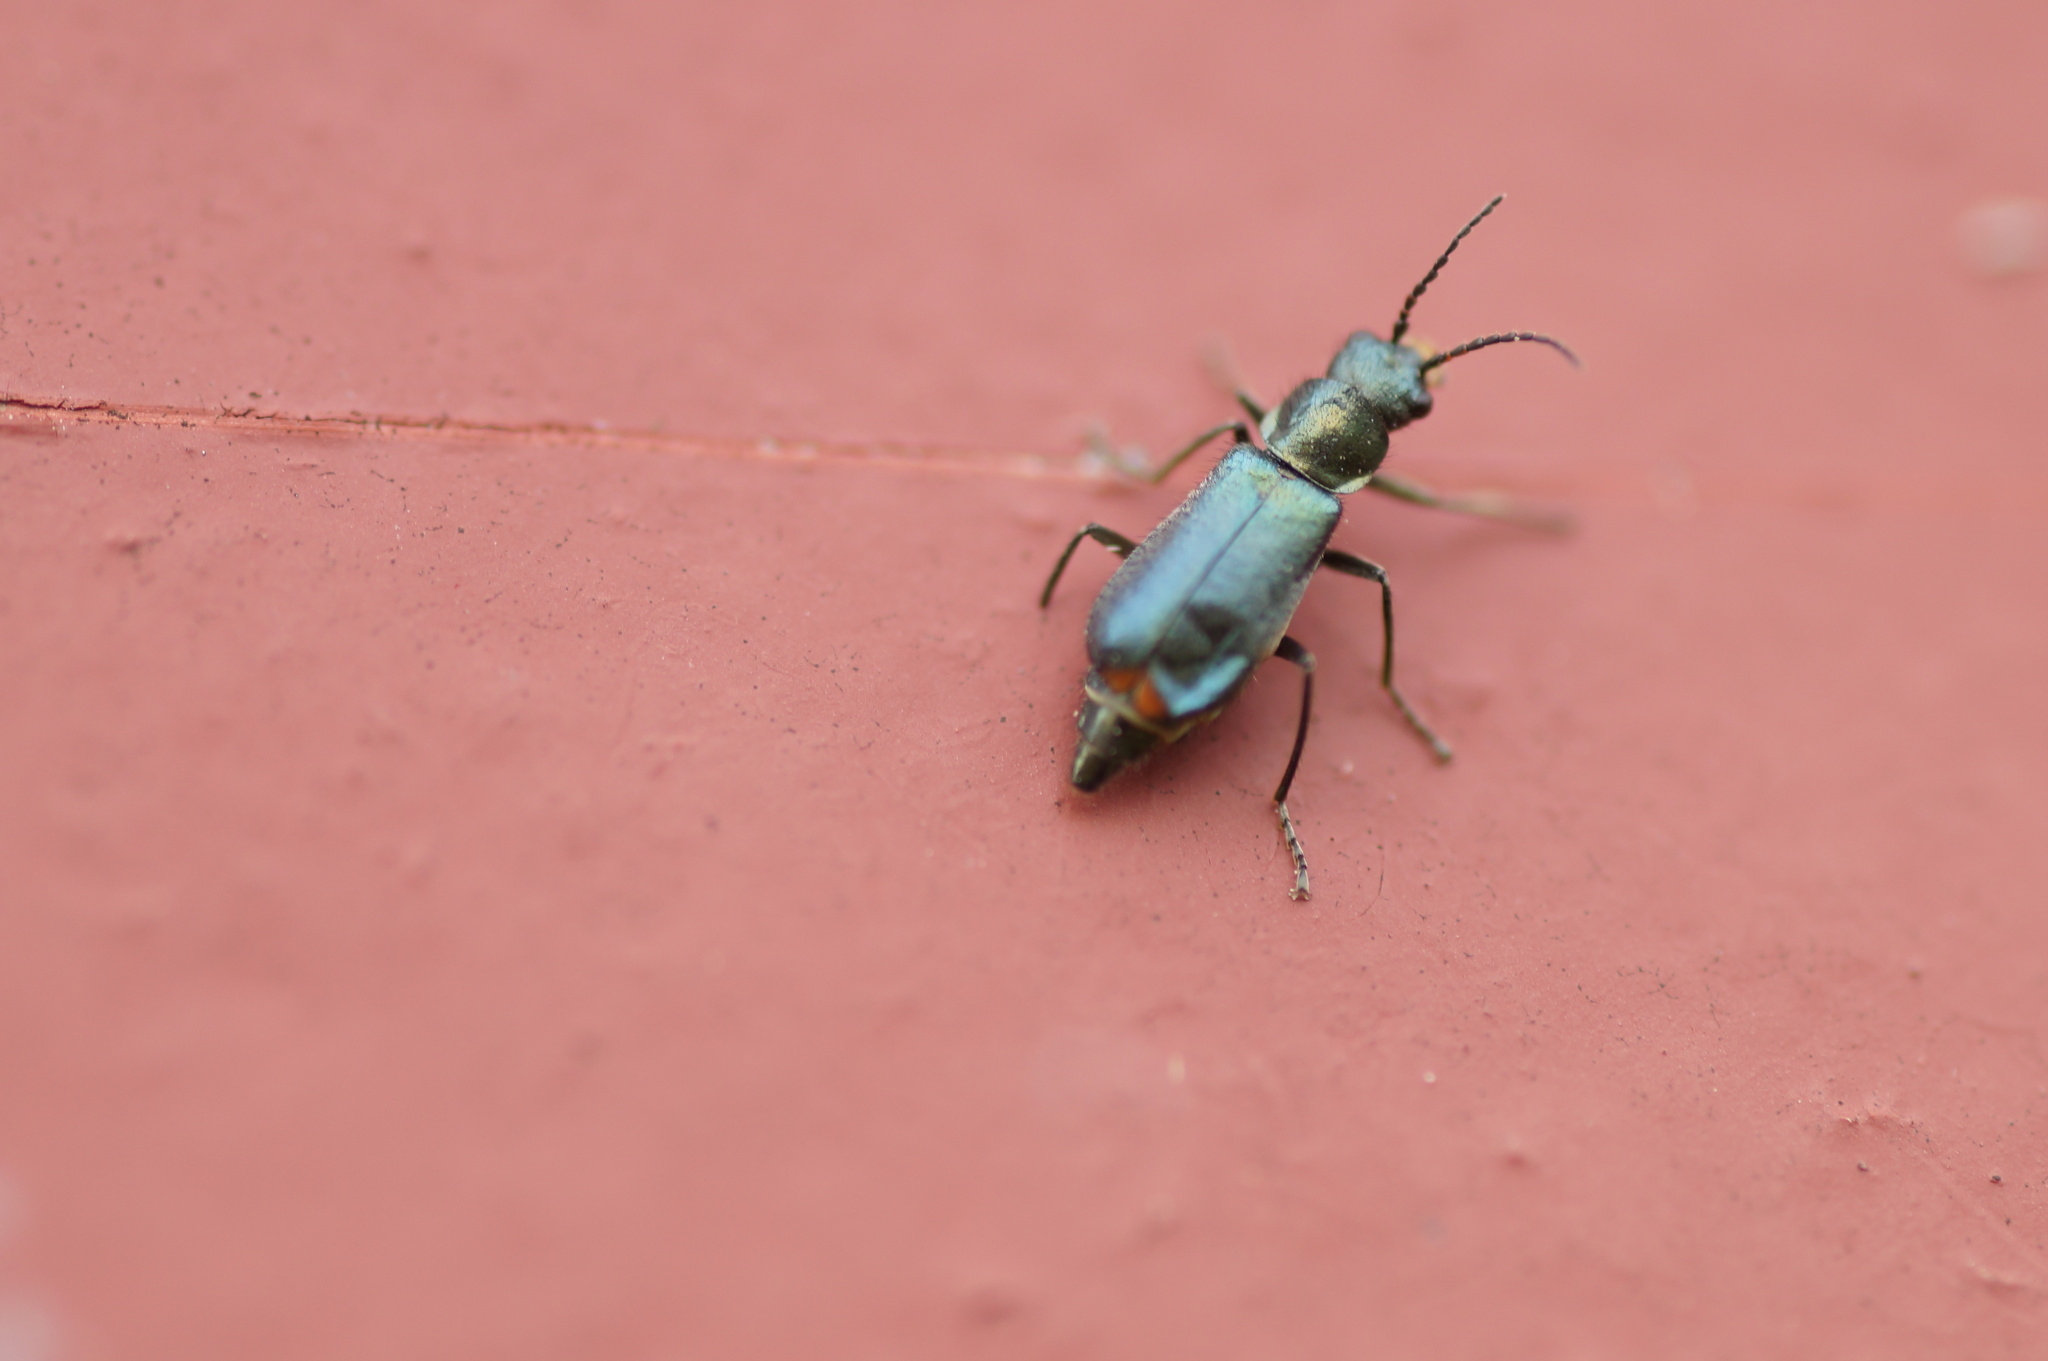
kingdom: Animalia
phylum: Arthropoda
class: Insecta
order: Coleoptera
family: Malachiidae
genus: Cordylepherus
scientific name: Cordylepherus viridis
